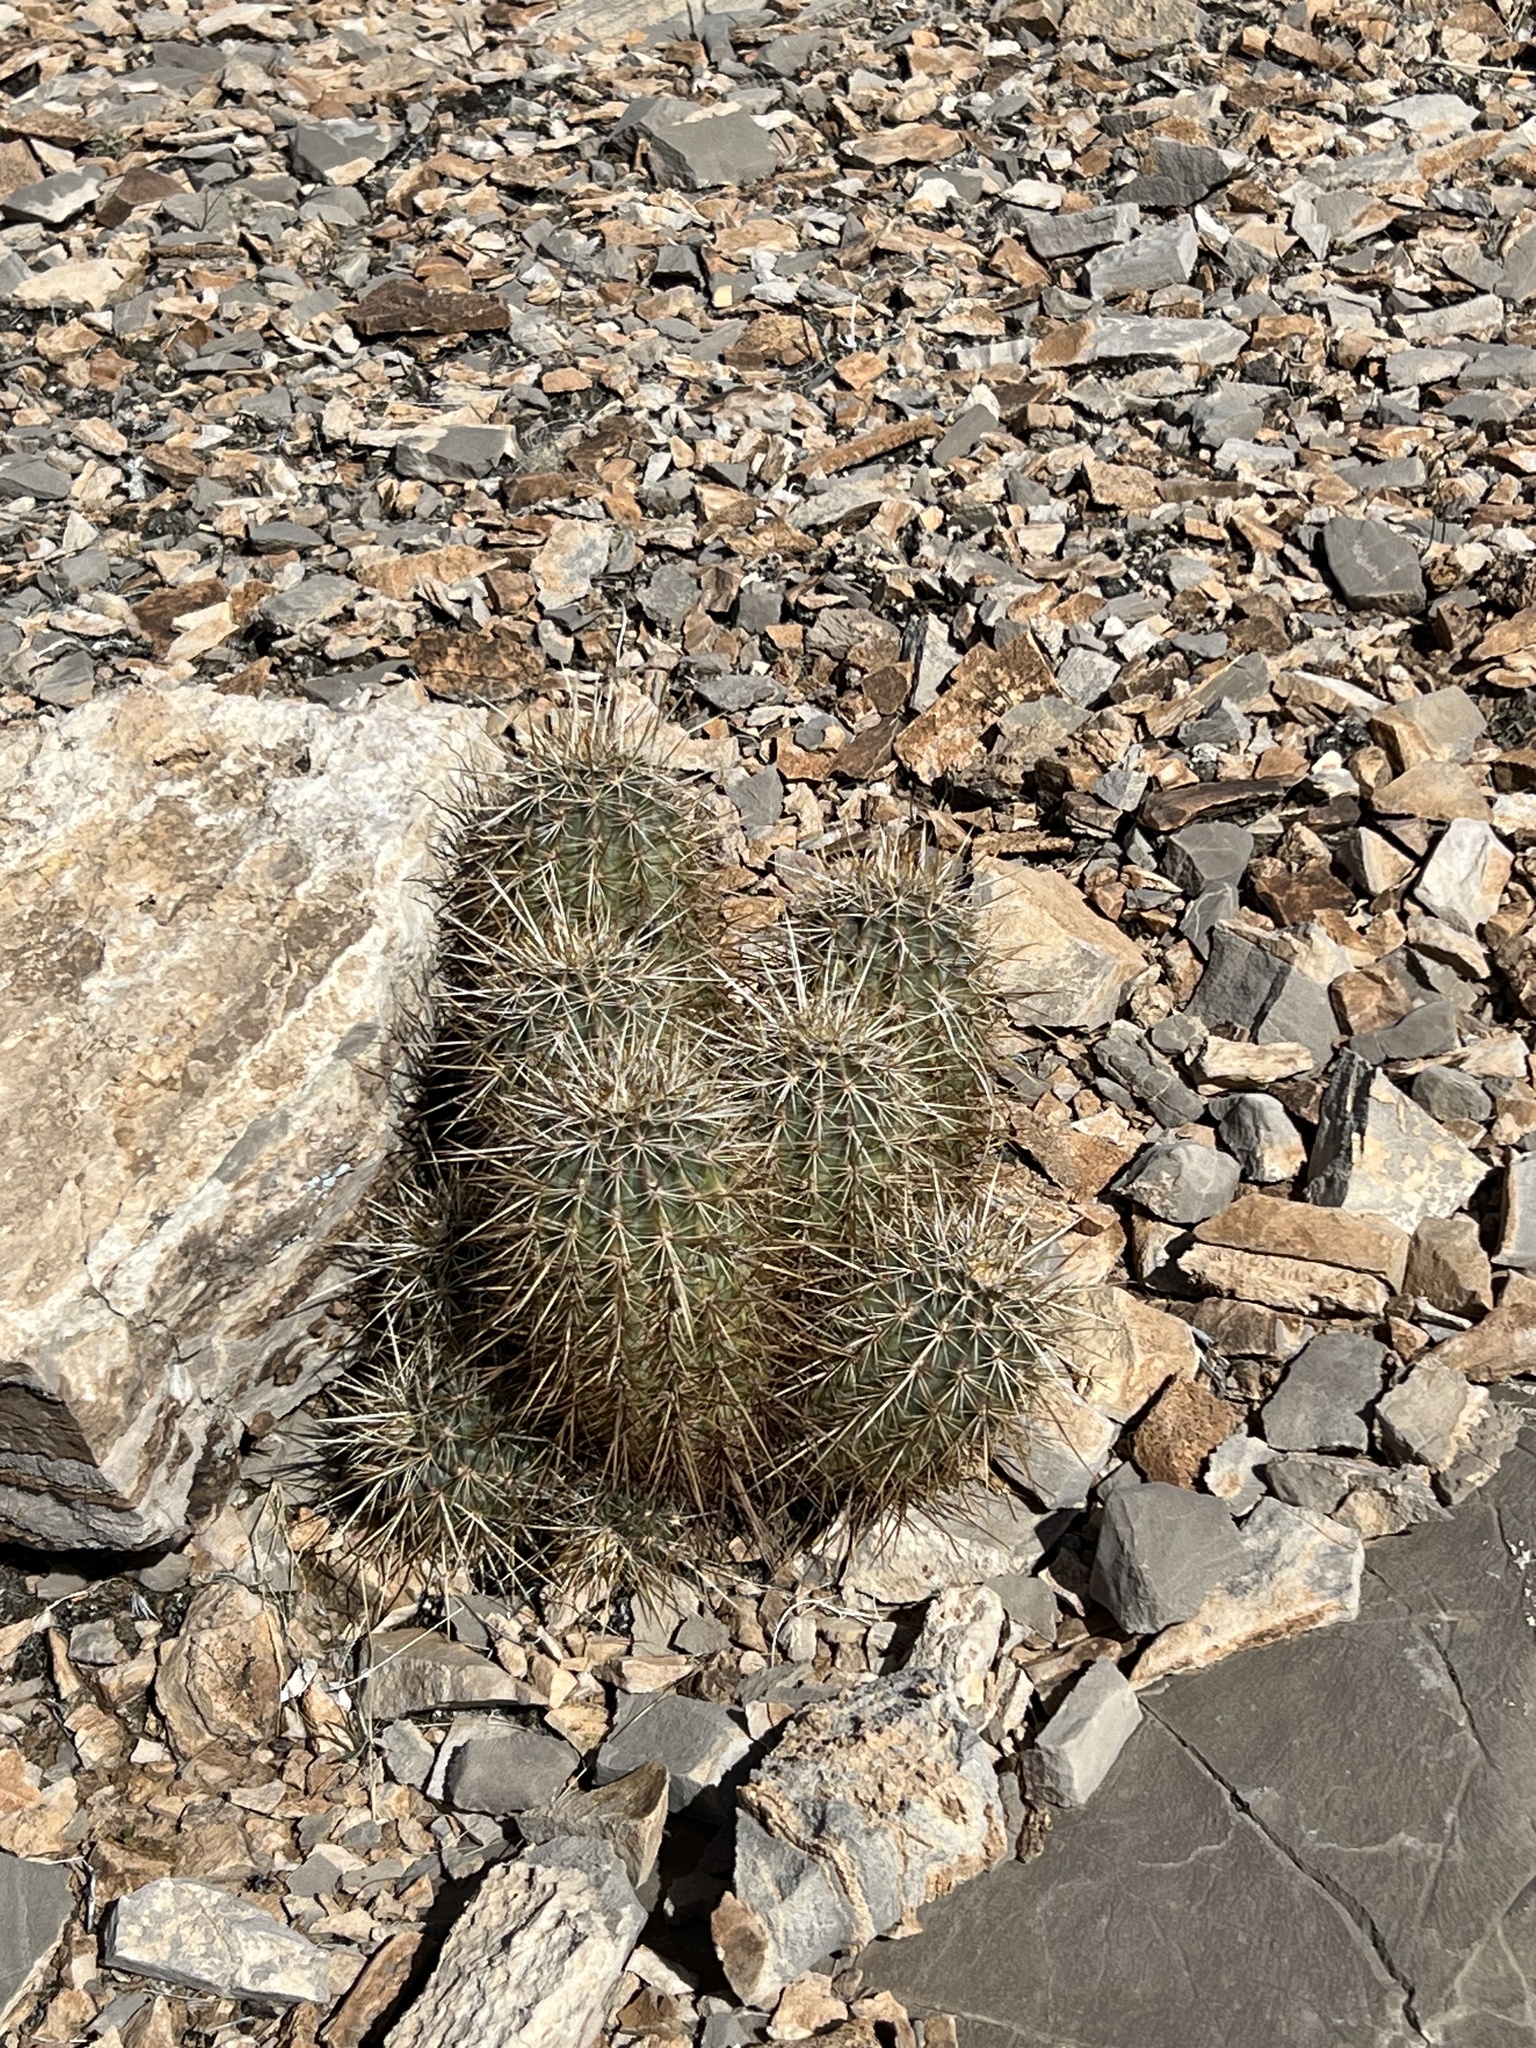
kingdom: Plantae
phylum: Tracheophyta
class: Magnoliopsida
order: Caryophyllales
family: Cactaceae
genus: Echinocereus
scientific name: Echinocereus engelmannii
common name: Engelmann's hedgehog cactus
